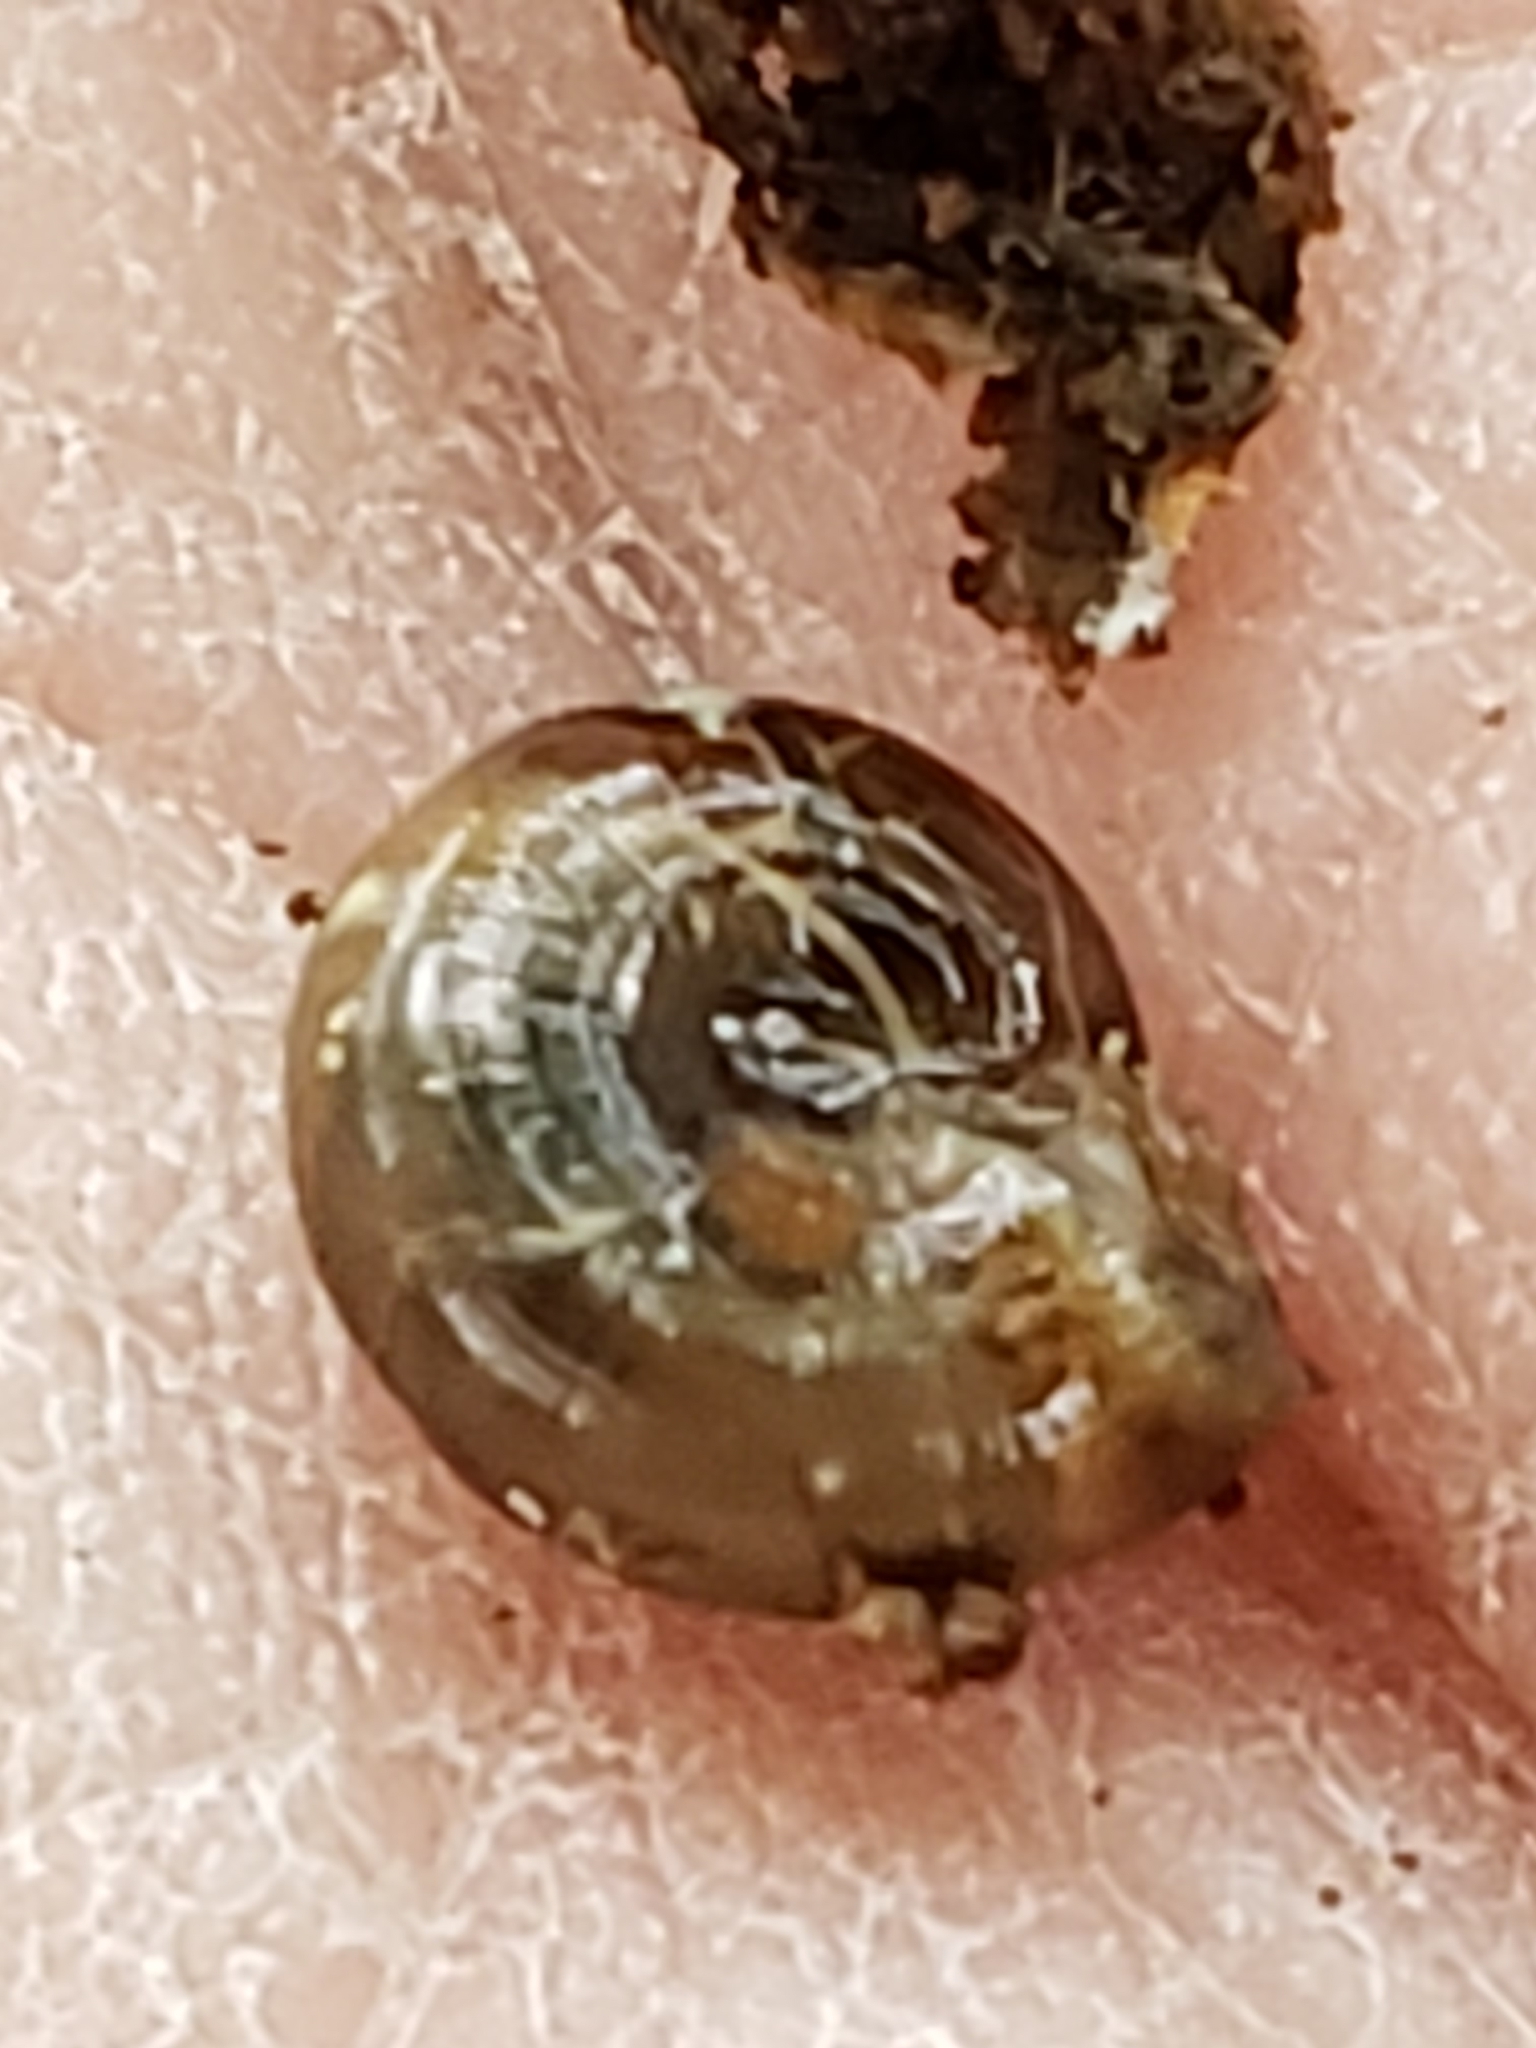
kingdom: Animalia
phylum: Mollusca
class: Gastropoda
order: Stylommatophora
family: Gastrodontidae
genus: Zonitoides
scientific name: Zonitoides arboreus
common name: Quick gloss
